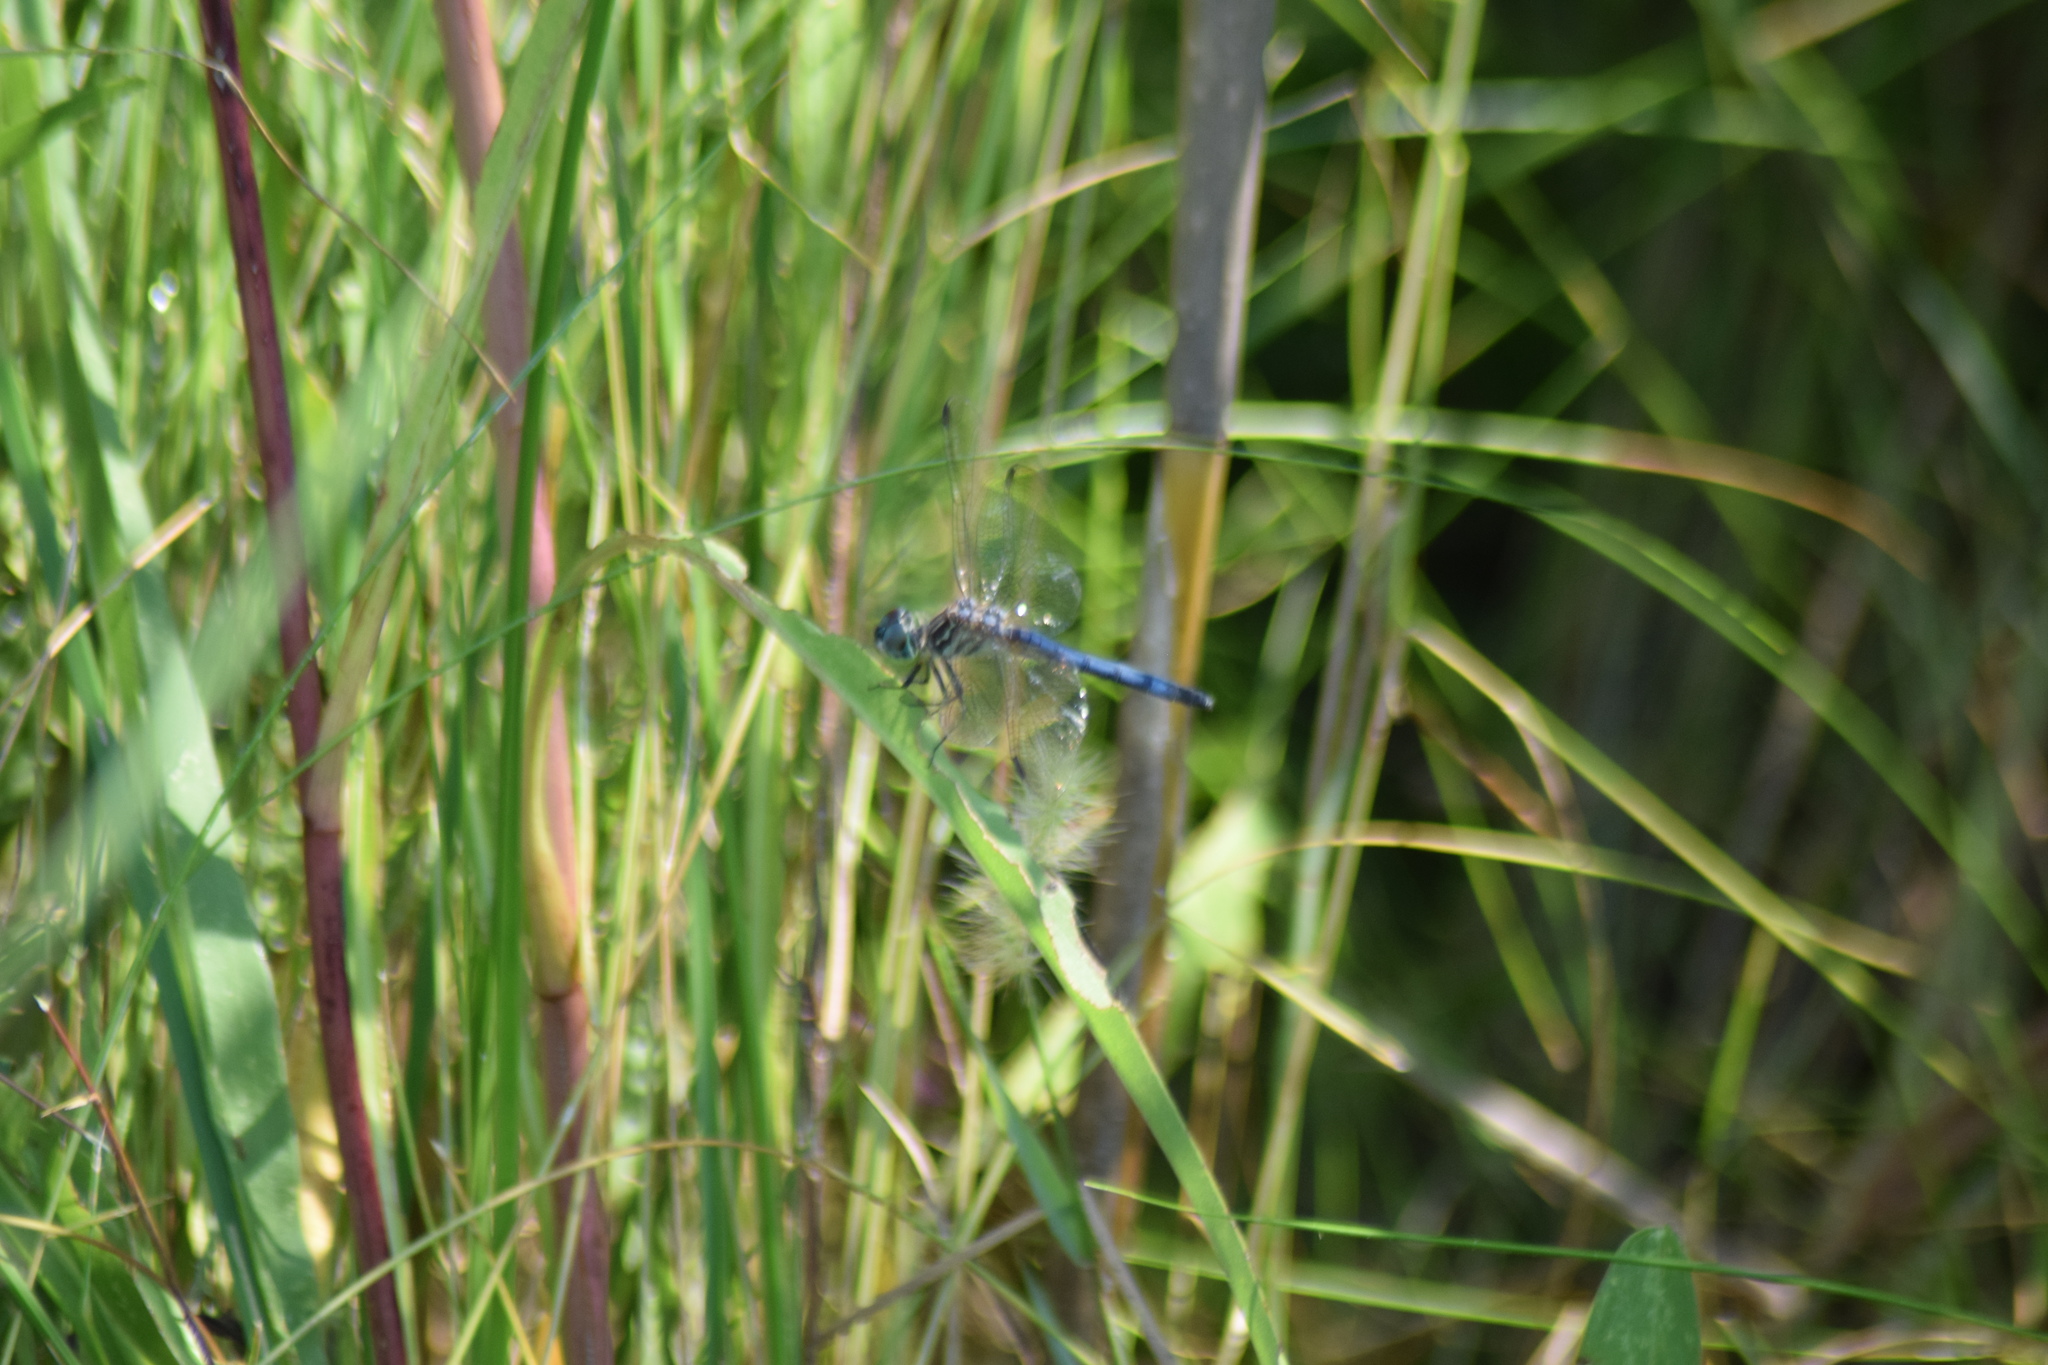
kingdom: Animalia
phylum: Arthropoda
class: Insecta
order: Odonata
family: Libellulidae
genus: Pachydiplax
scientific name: Pachydiplax longipennis
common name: Blue dasher
